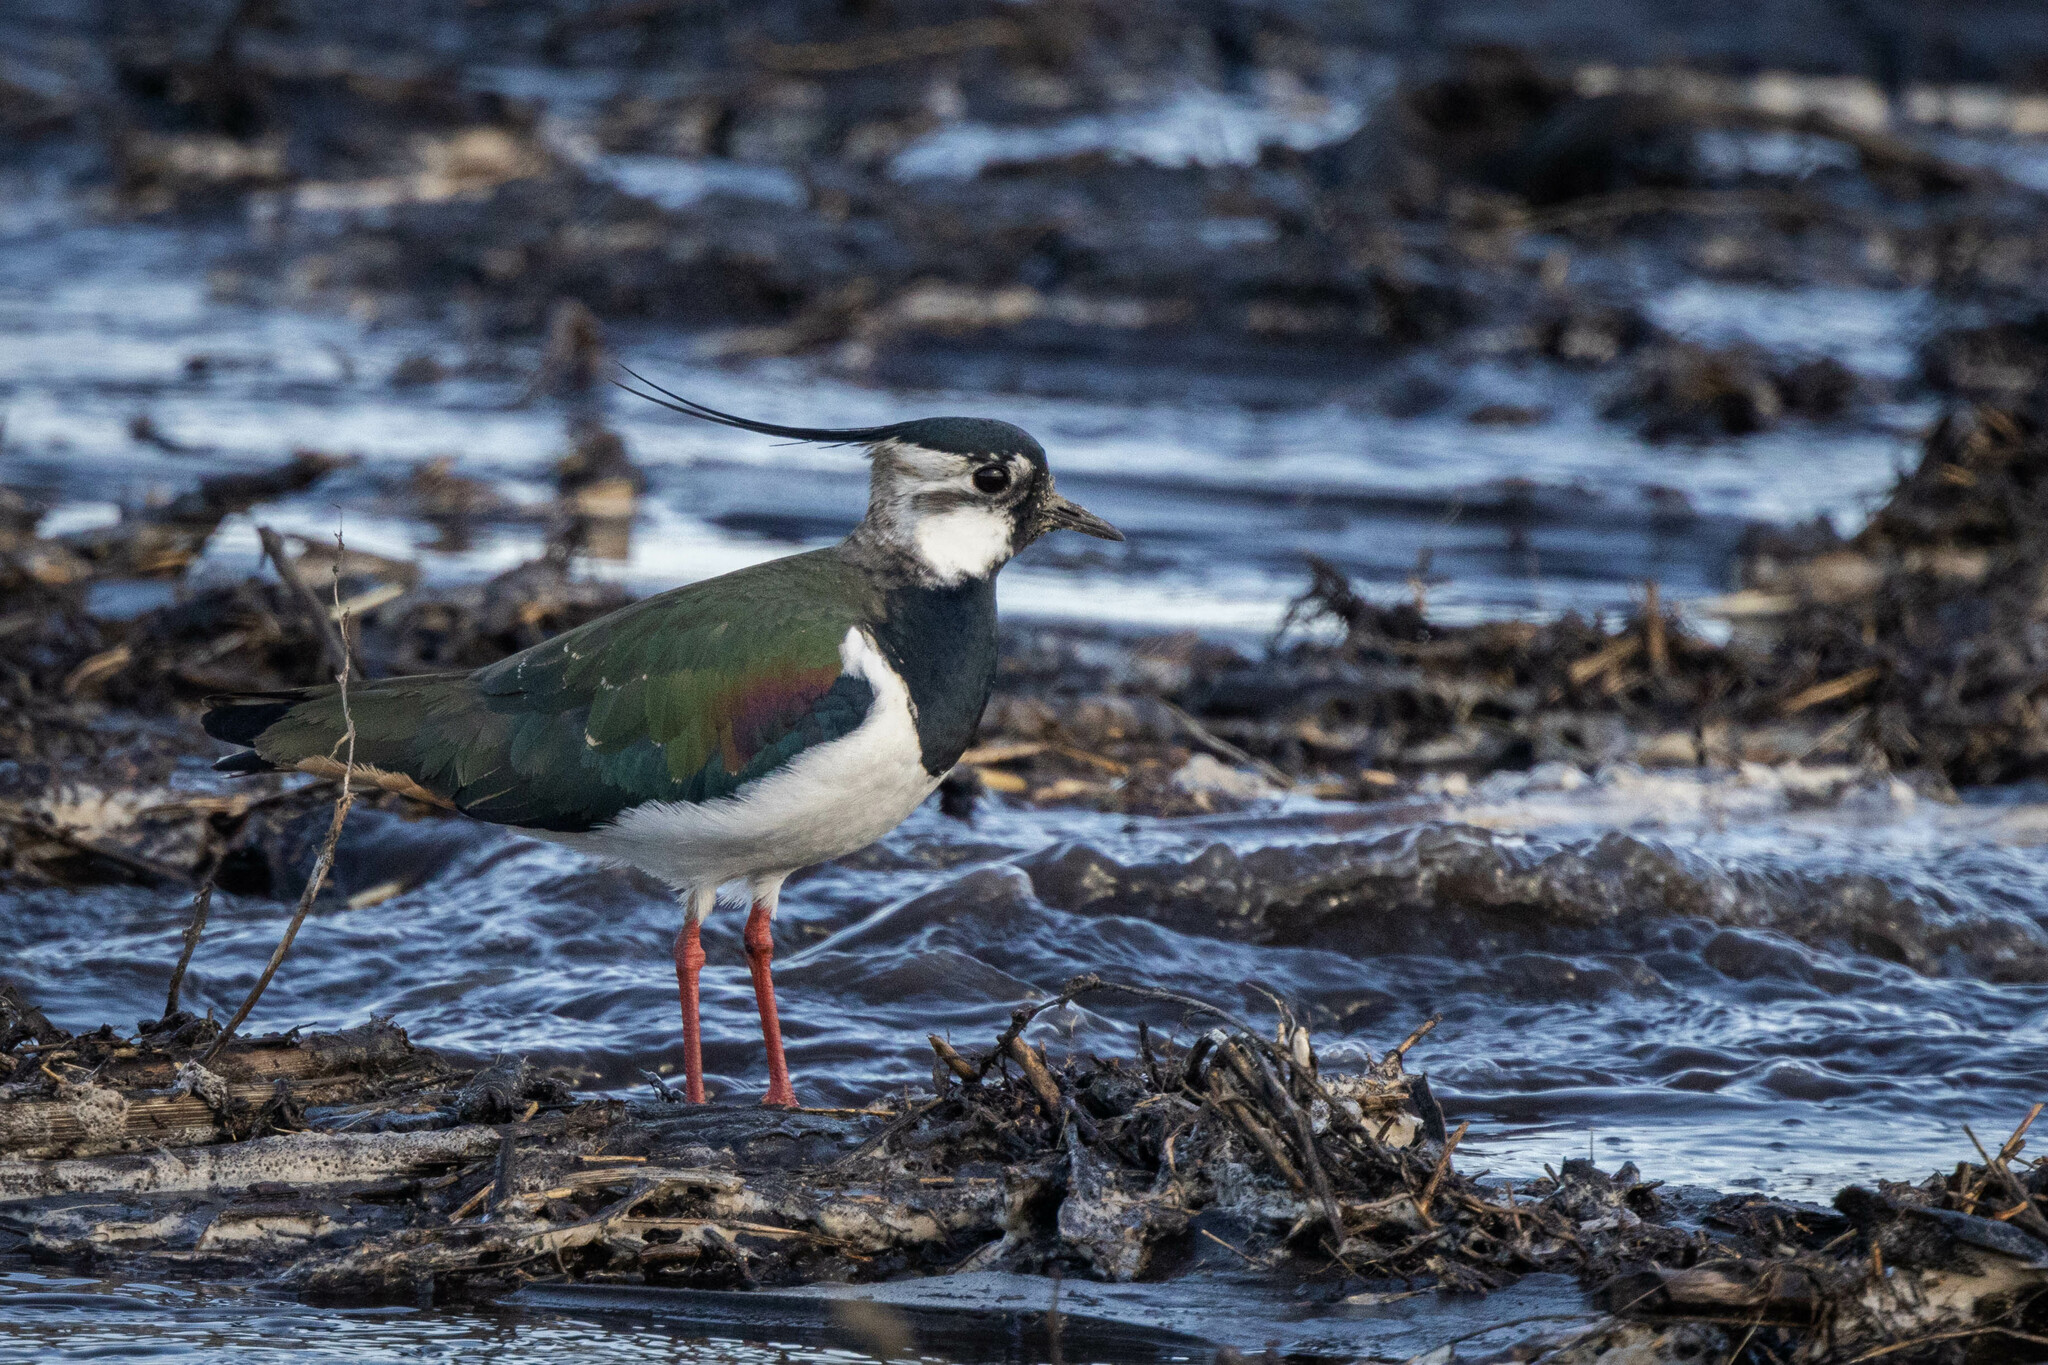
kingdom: Animalia
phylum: Chordata
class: Aves
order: Charadriiformes
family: Charadriidae
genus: Vanellus
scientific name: Vanellus vanellus
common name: Northern lapwing
